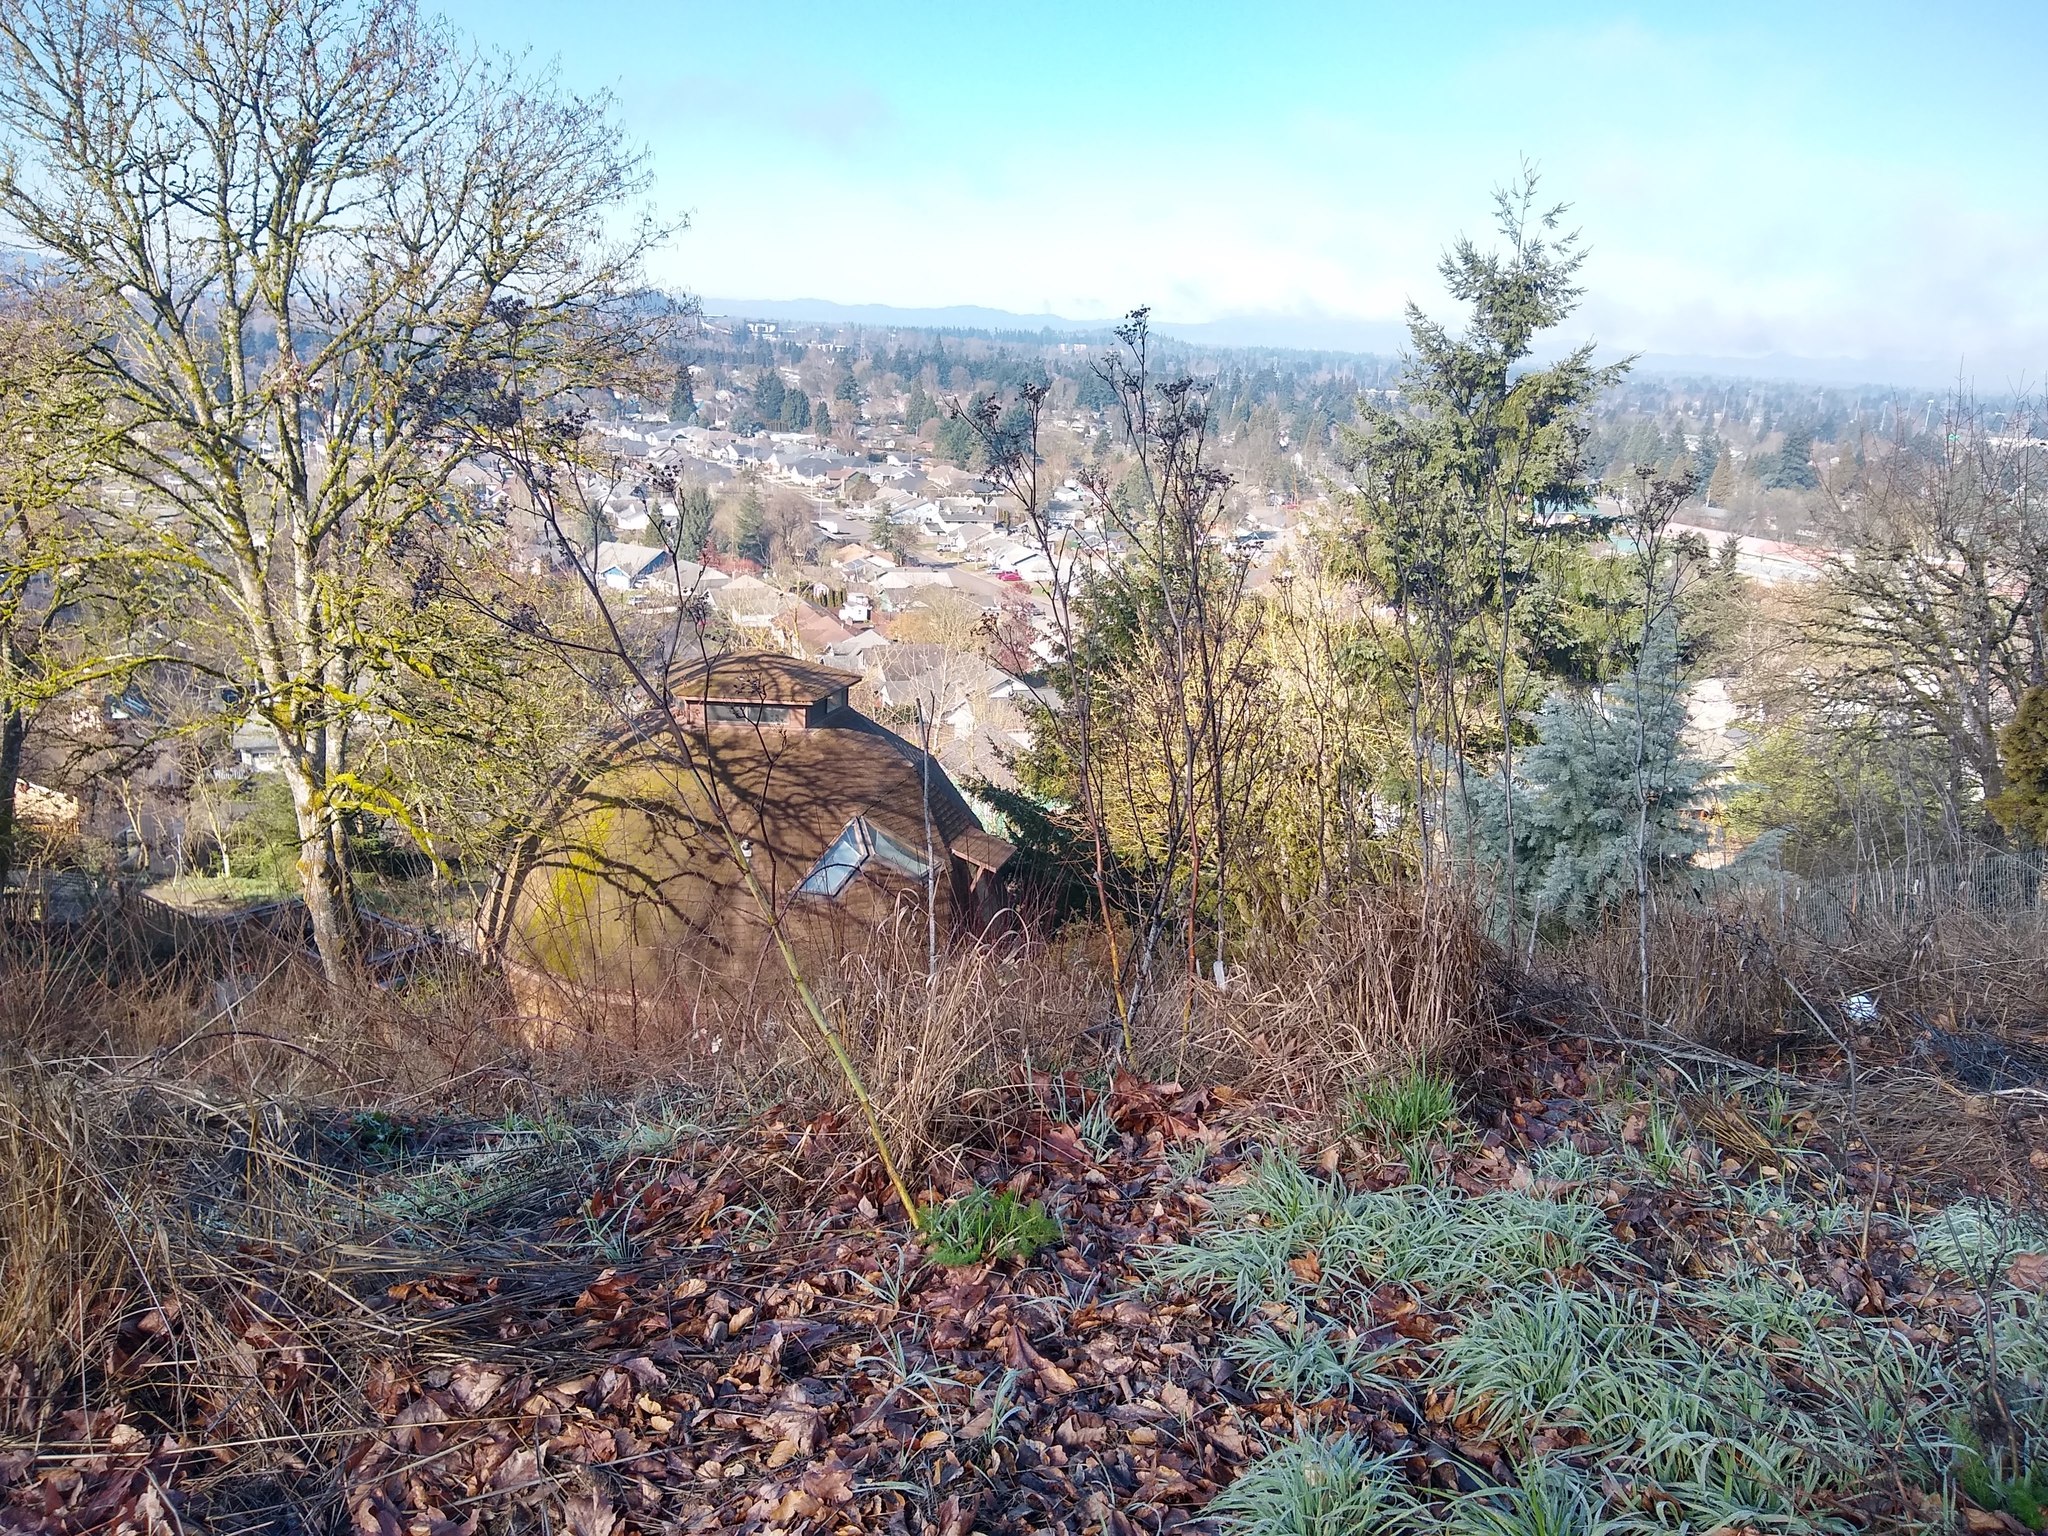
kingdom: Plantae
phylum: Tracheophyta
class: Magnoliopsida
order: Apiales
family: Apiaceae
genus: Foeniculum
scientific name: Foeniculum vulgare
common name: Fennel
